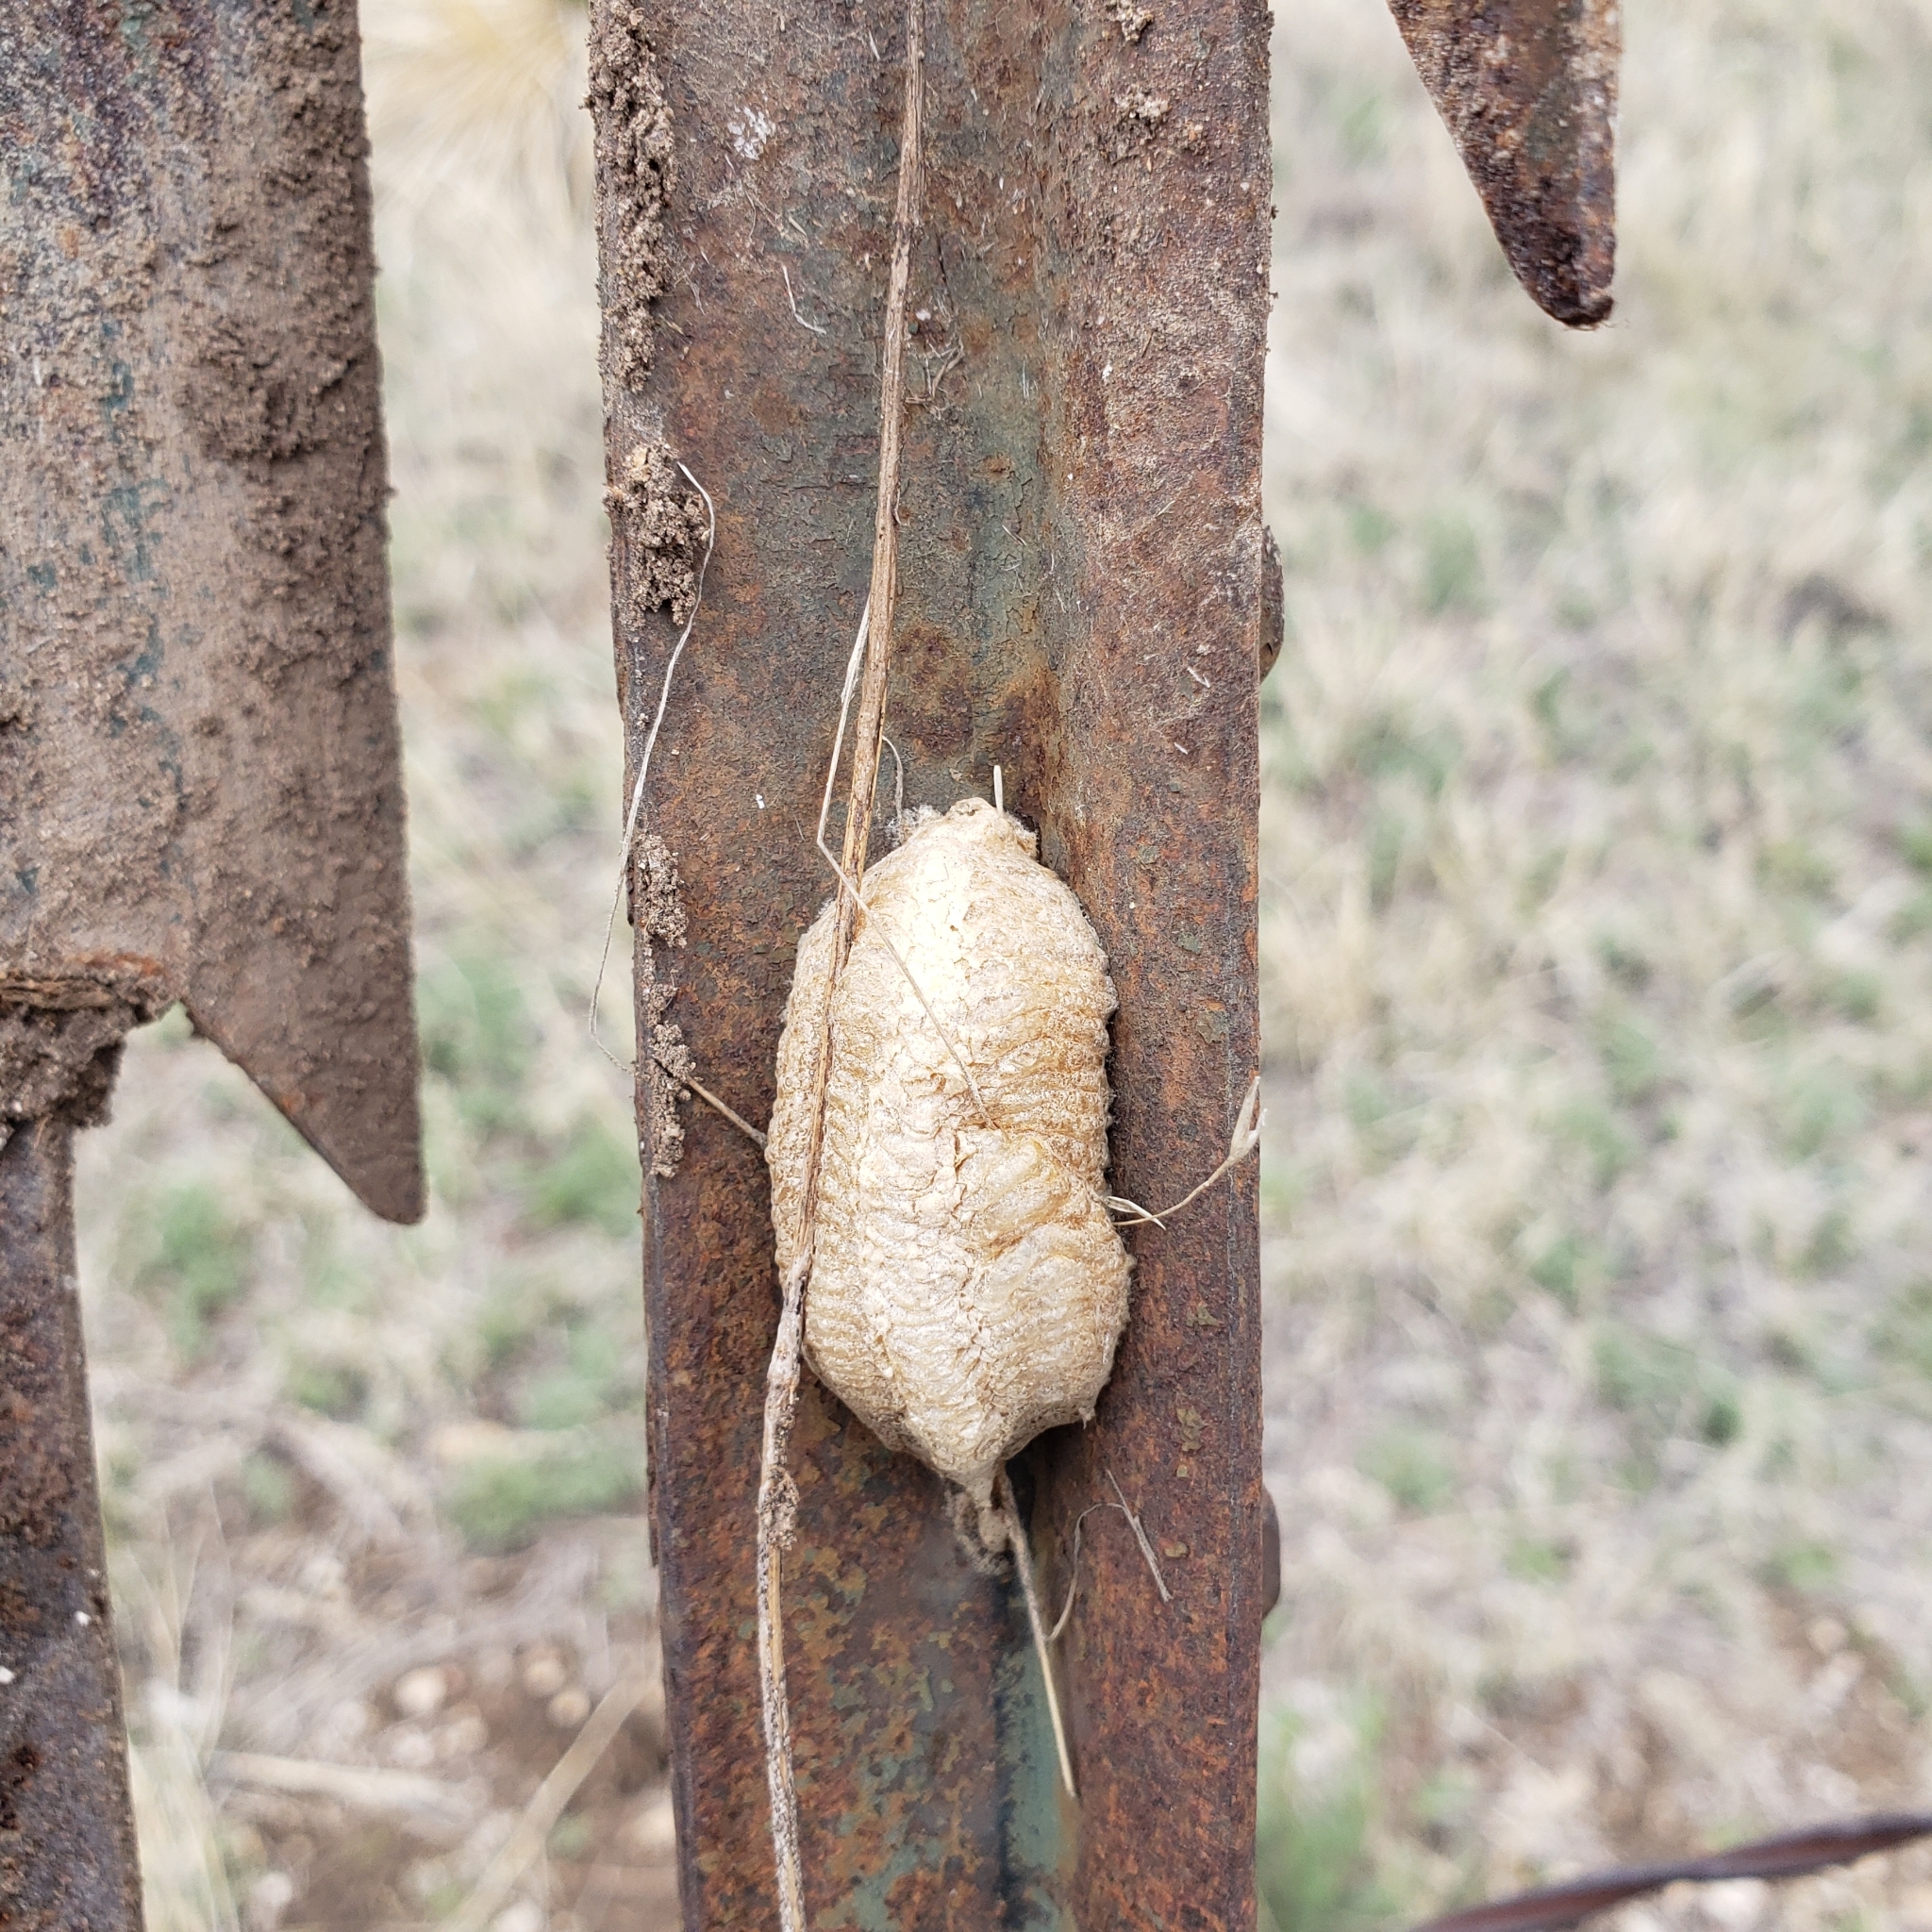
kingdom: Animalia
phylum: Arthropoda
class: Insecta
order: Mantodea
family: Mantidae
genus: Mantis
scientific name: Mantis religiosa
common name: Praying mantis
